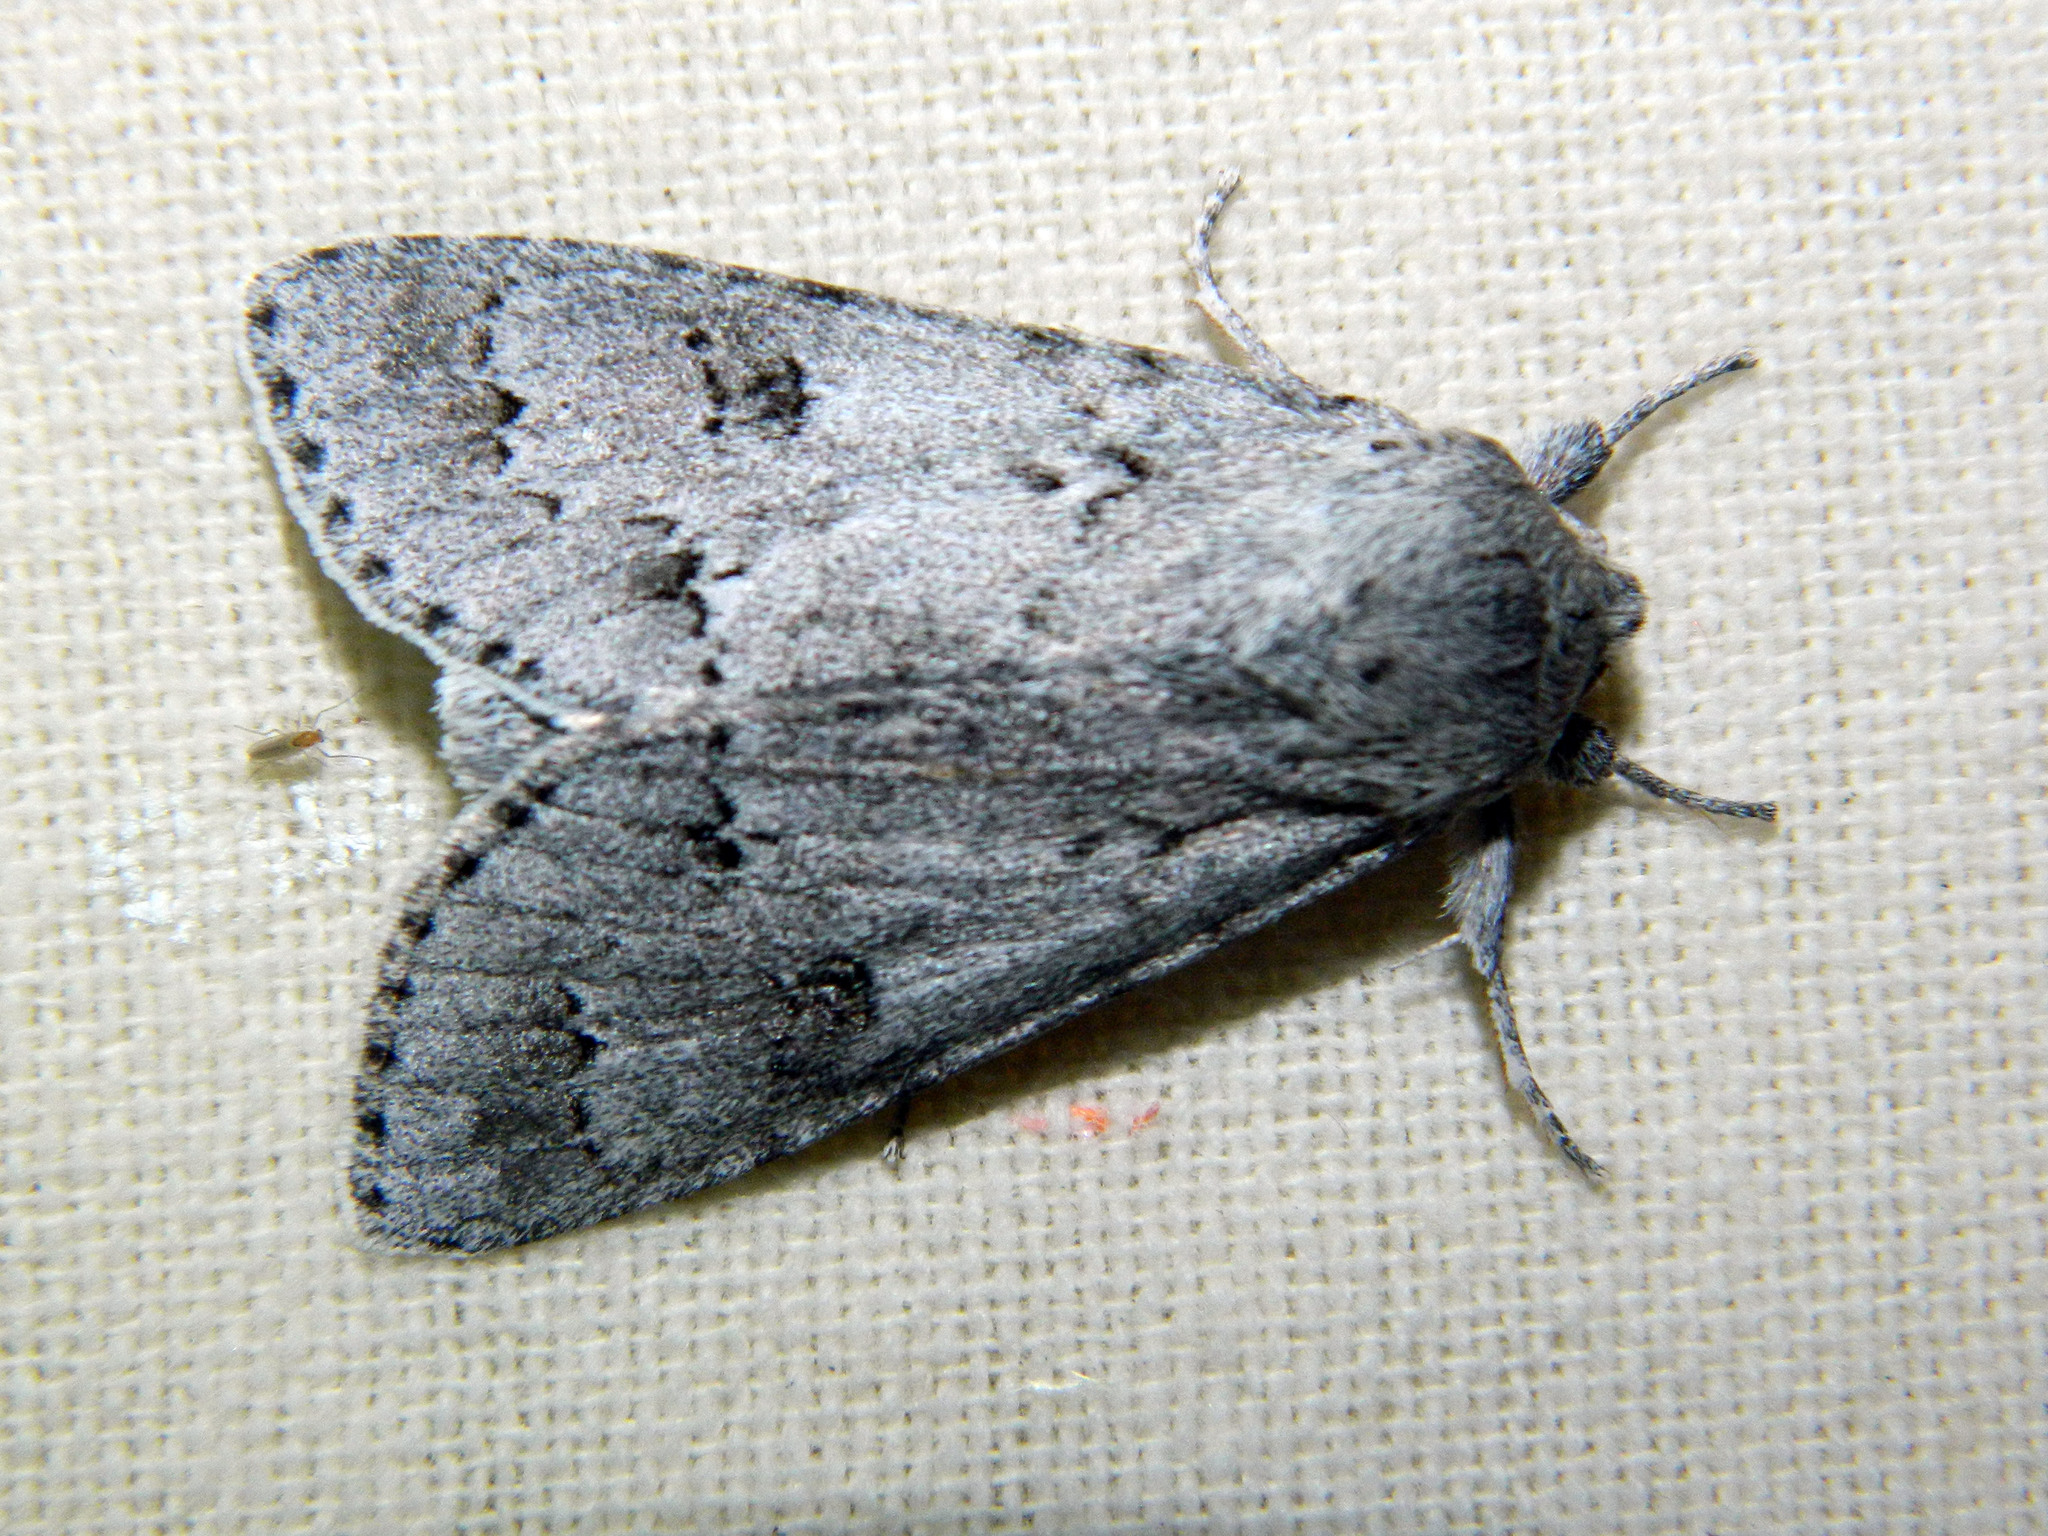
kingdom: Animalia
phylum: Arthropoda
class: Insecta
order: Lepidoptera
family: Noctuidae
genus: Acronicta
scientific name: Acronicta insita
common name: Large gray dagger
